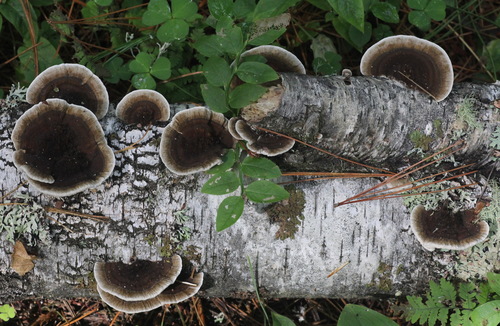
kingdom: Fungi
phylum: Basidiomycota
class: Agaricomycetes
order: Polyporales
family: Polyporaceae
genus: Daedaleopsis
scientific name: Daedaleopsis confragosa
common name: Blushing bracket
